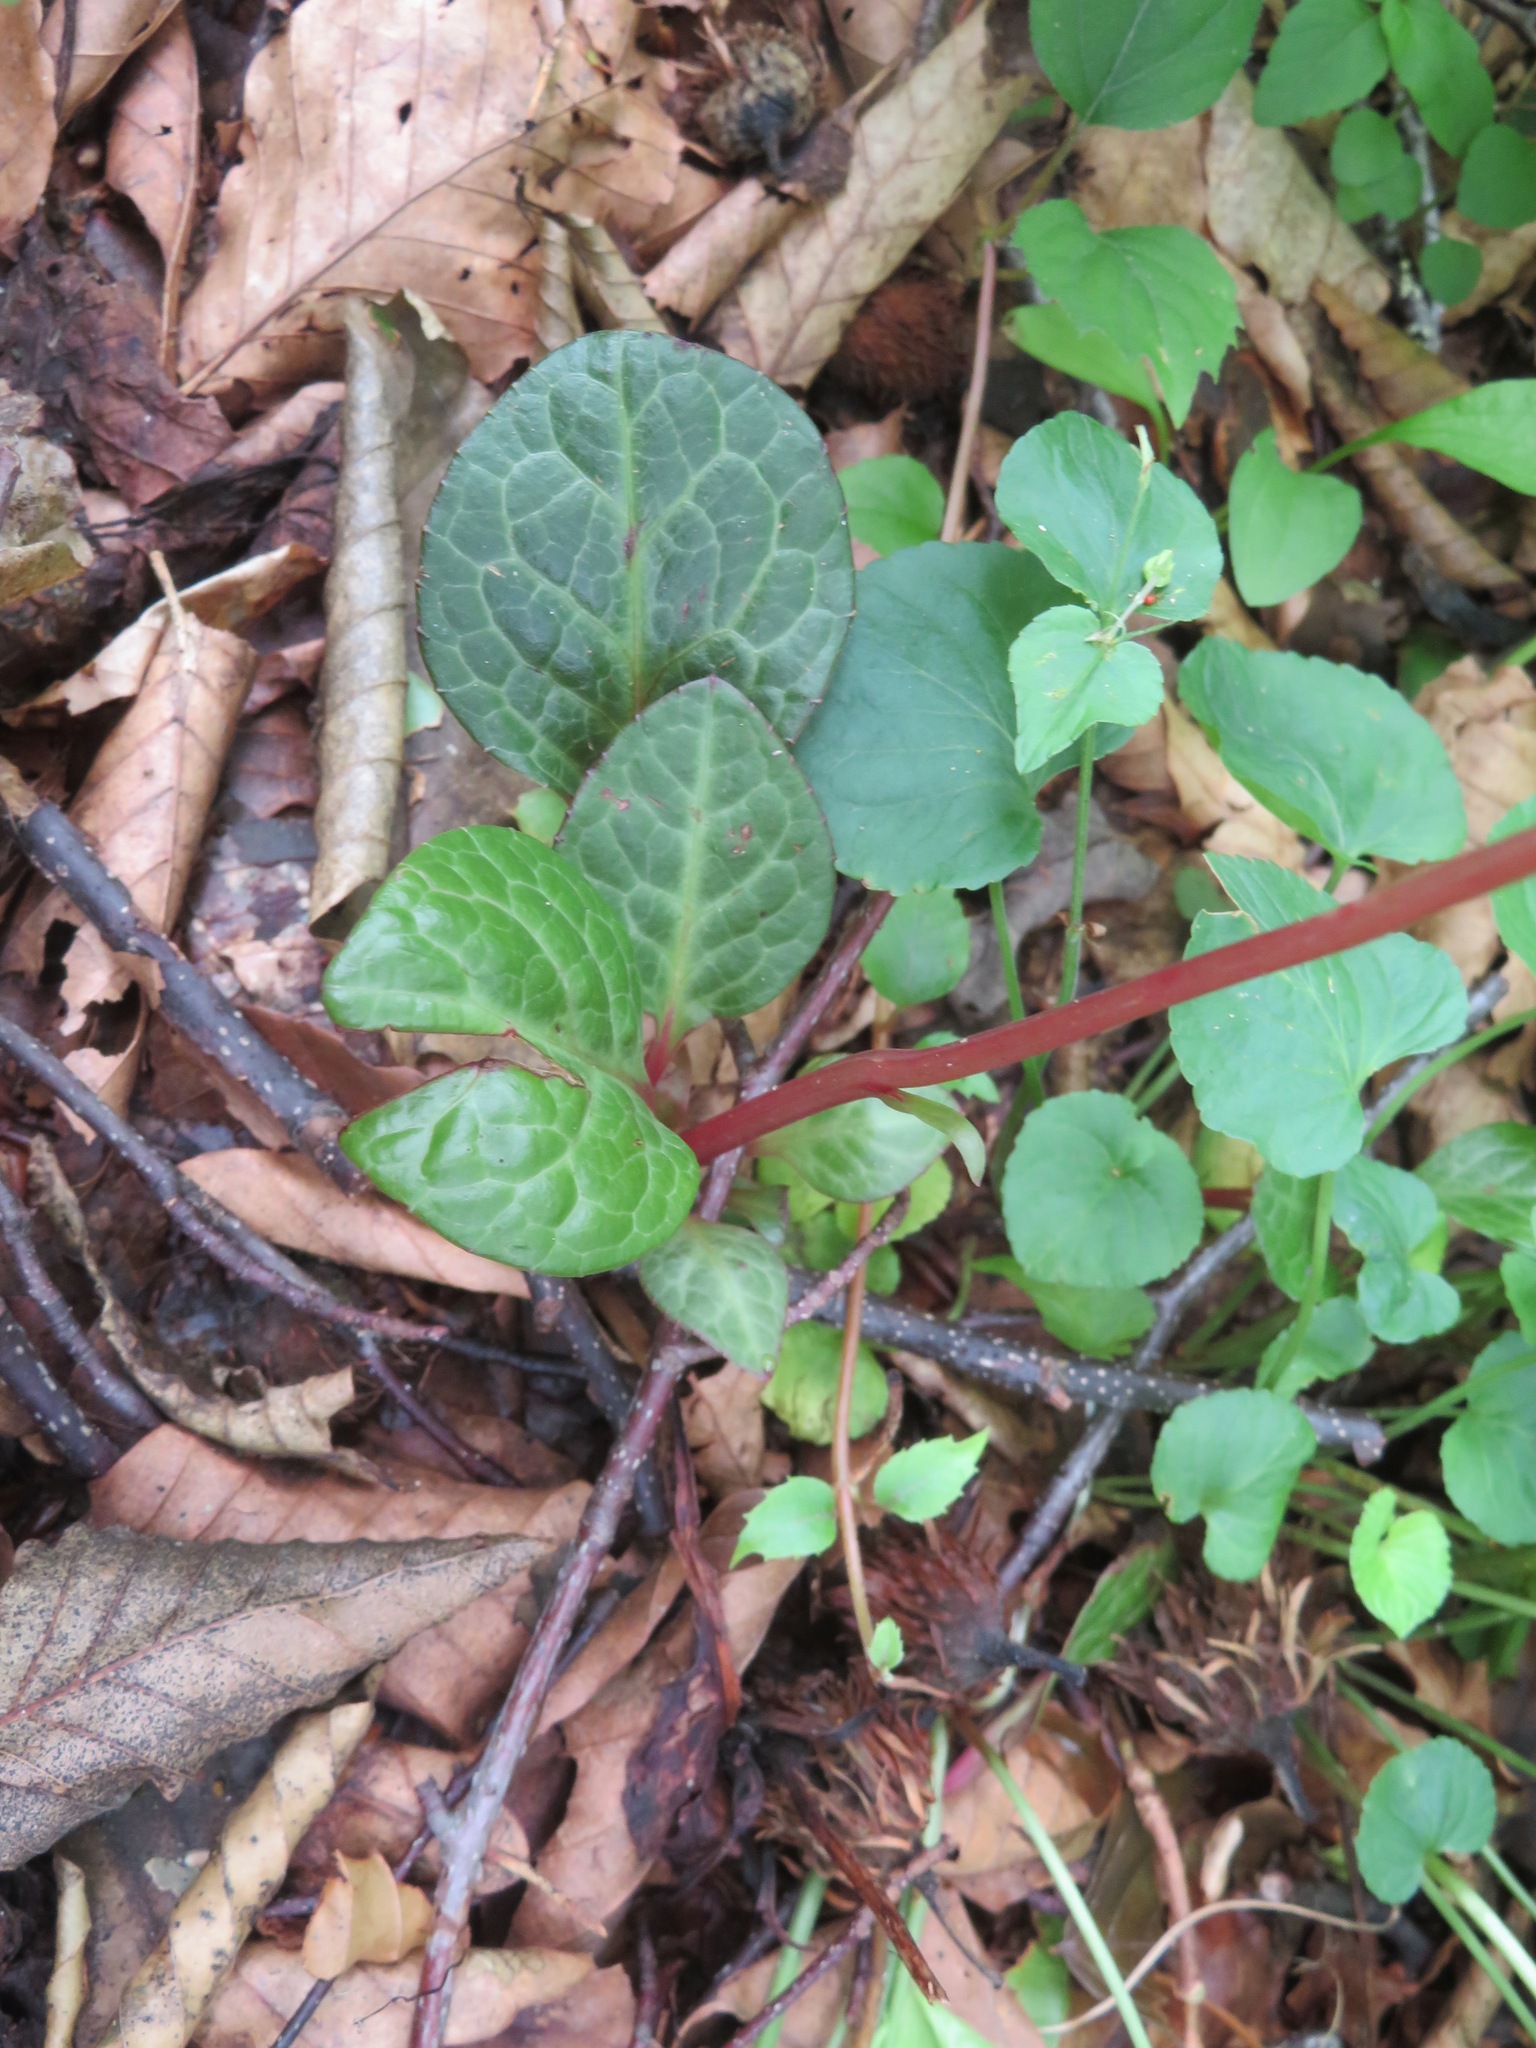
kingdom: Plantae
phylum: Tracheophyta
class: Magnoliopsida
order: Ericales
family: Ericaceae
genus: Pyrola
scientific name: Pyrola japonica
